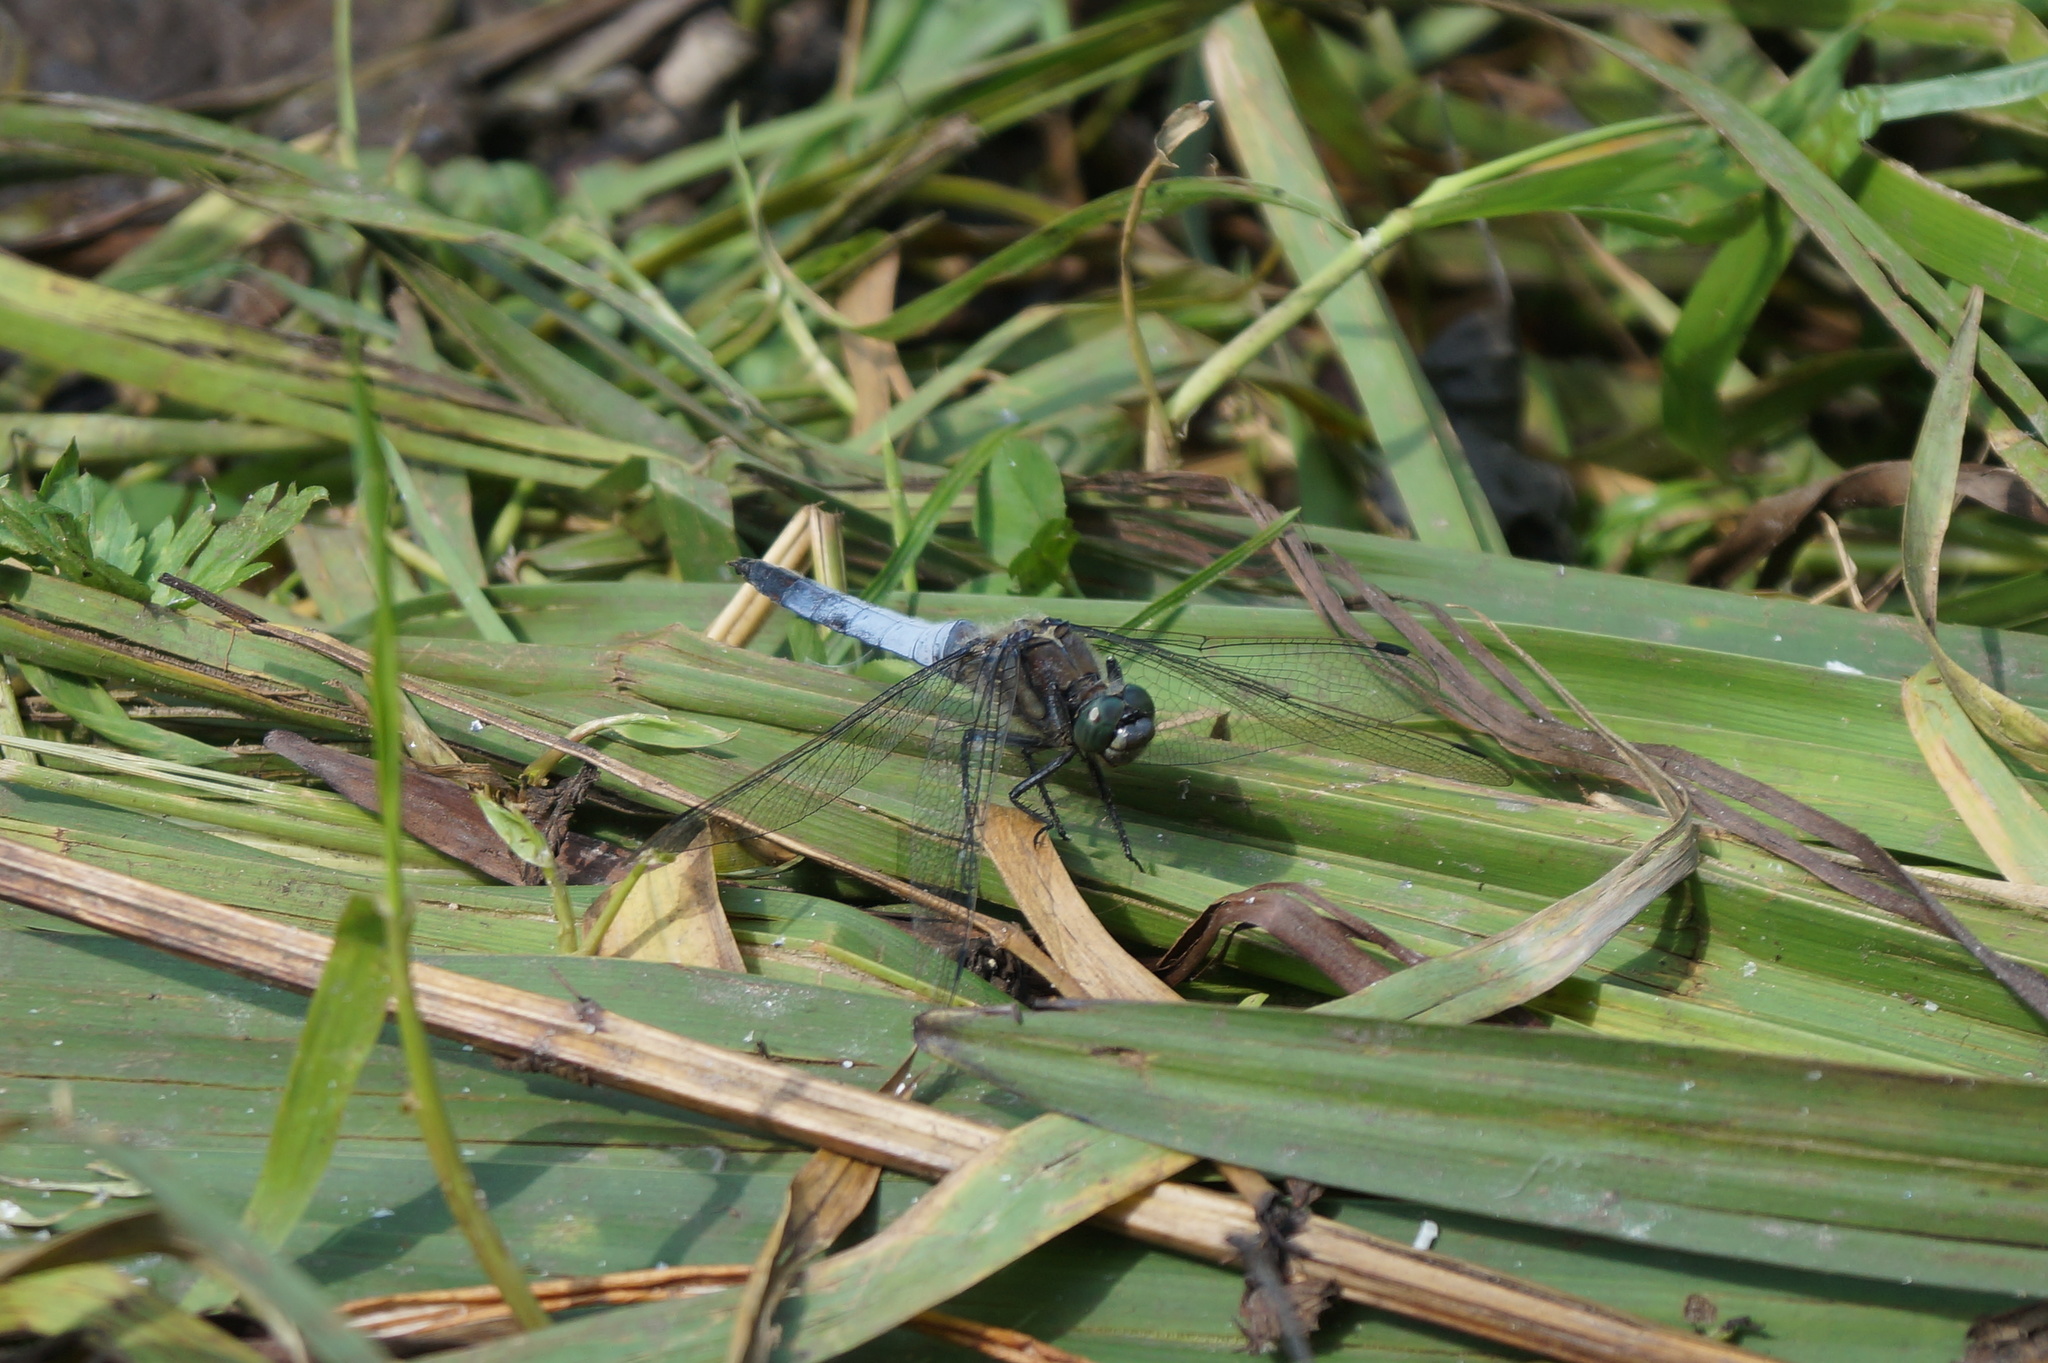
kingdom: Animalia
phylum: Arthropoda
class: Insecta
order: Odonata
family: Libellulidae
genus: Orthetrum
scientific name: Orthetrum cancellatum
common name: Black-tailed skimmer
